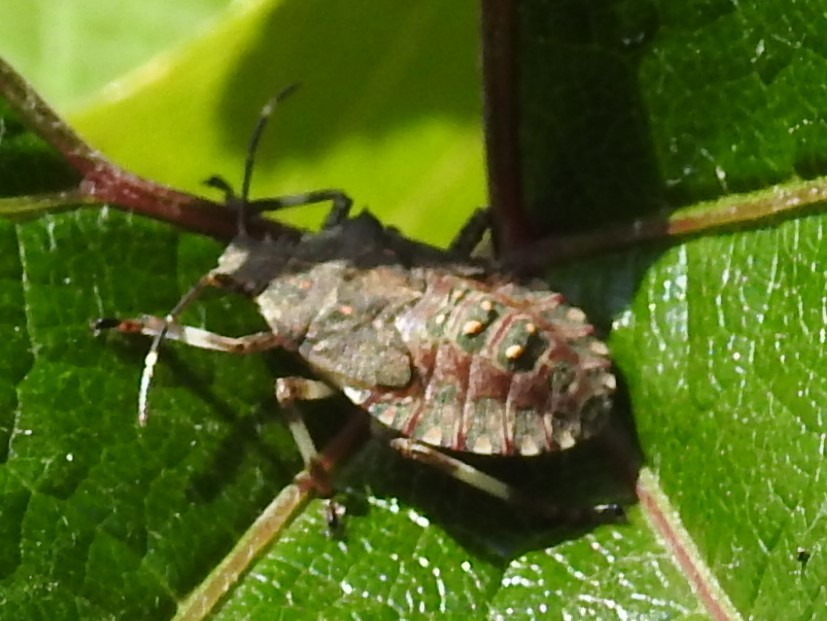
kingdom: Animalia
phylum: Arthropoda
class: Insecta
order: Hemiptera
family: Pentatomidae
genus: Halyomorpha
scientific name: Halyomorpha halys
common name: Brown marmorated stink bug
